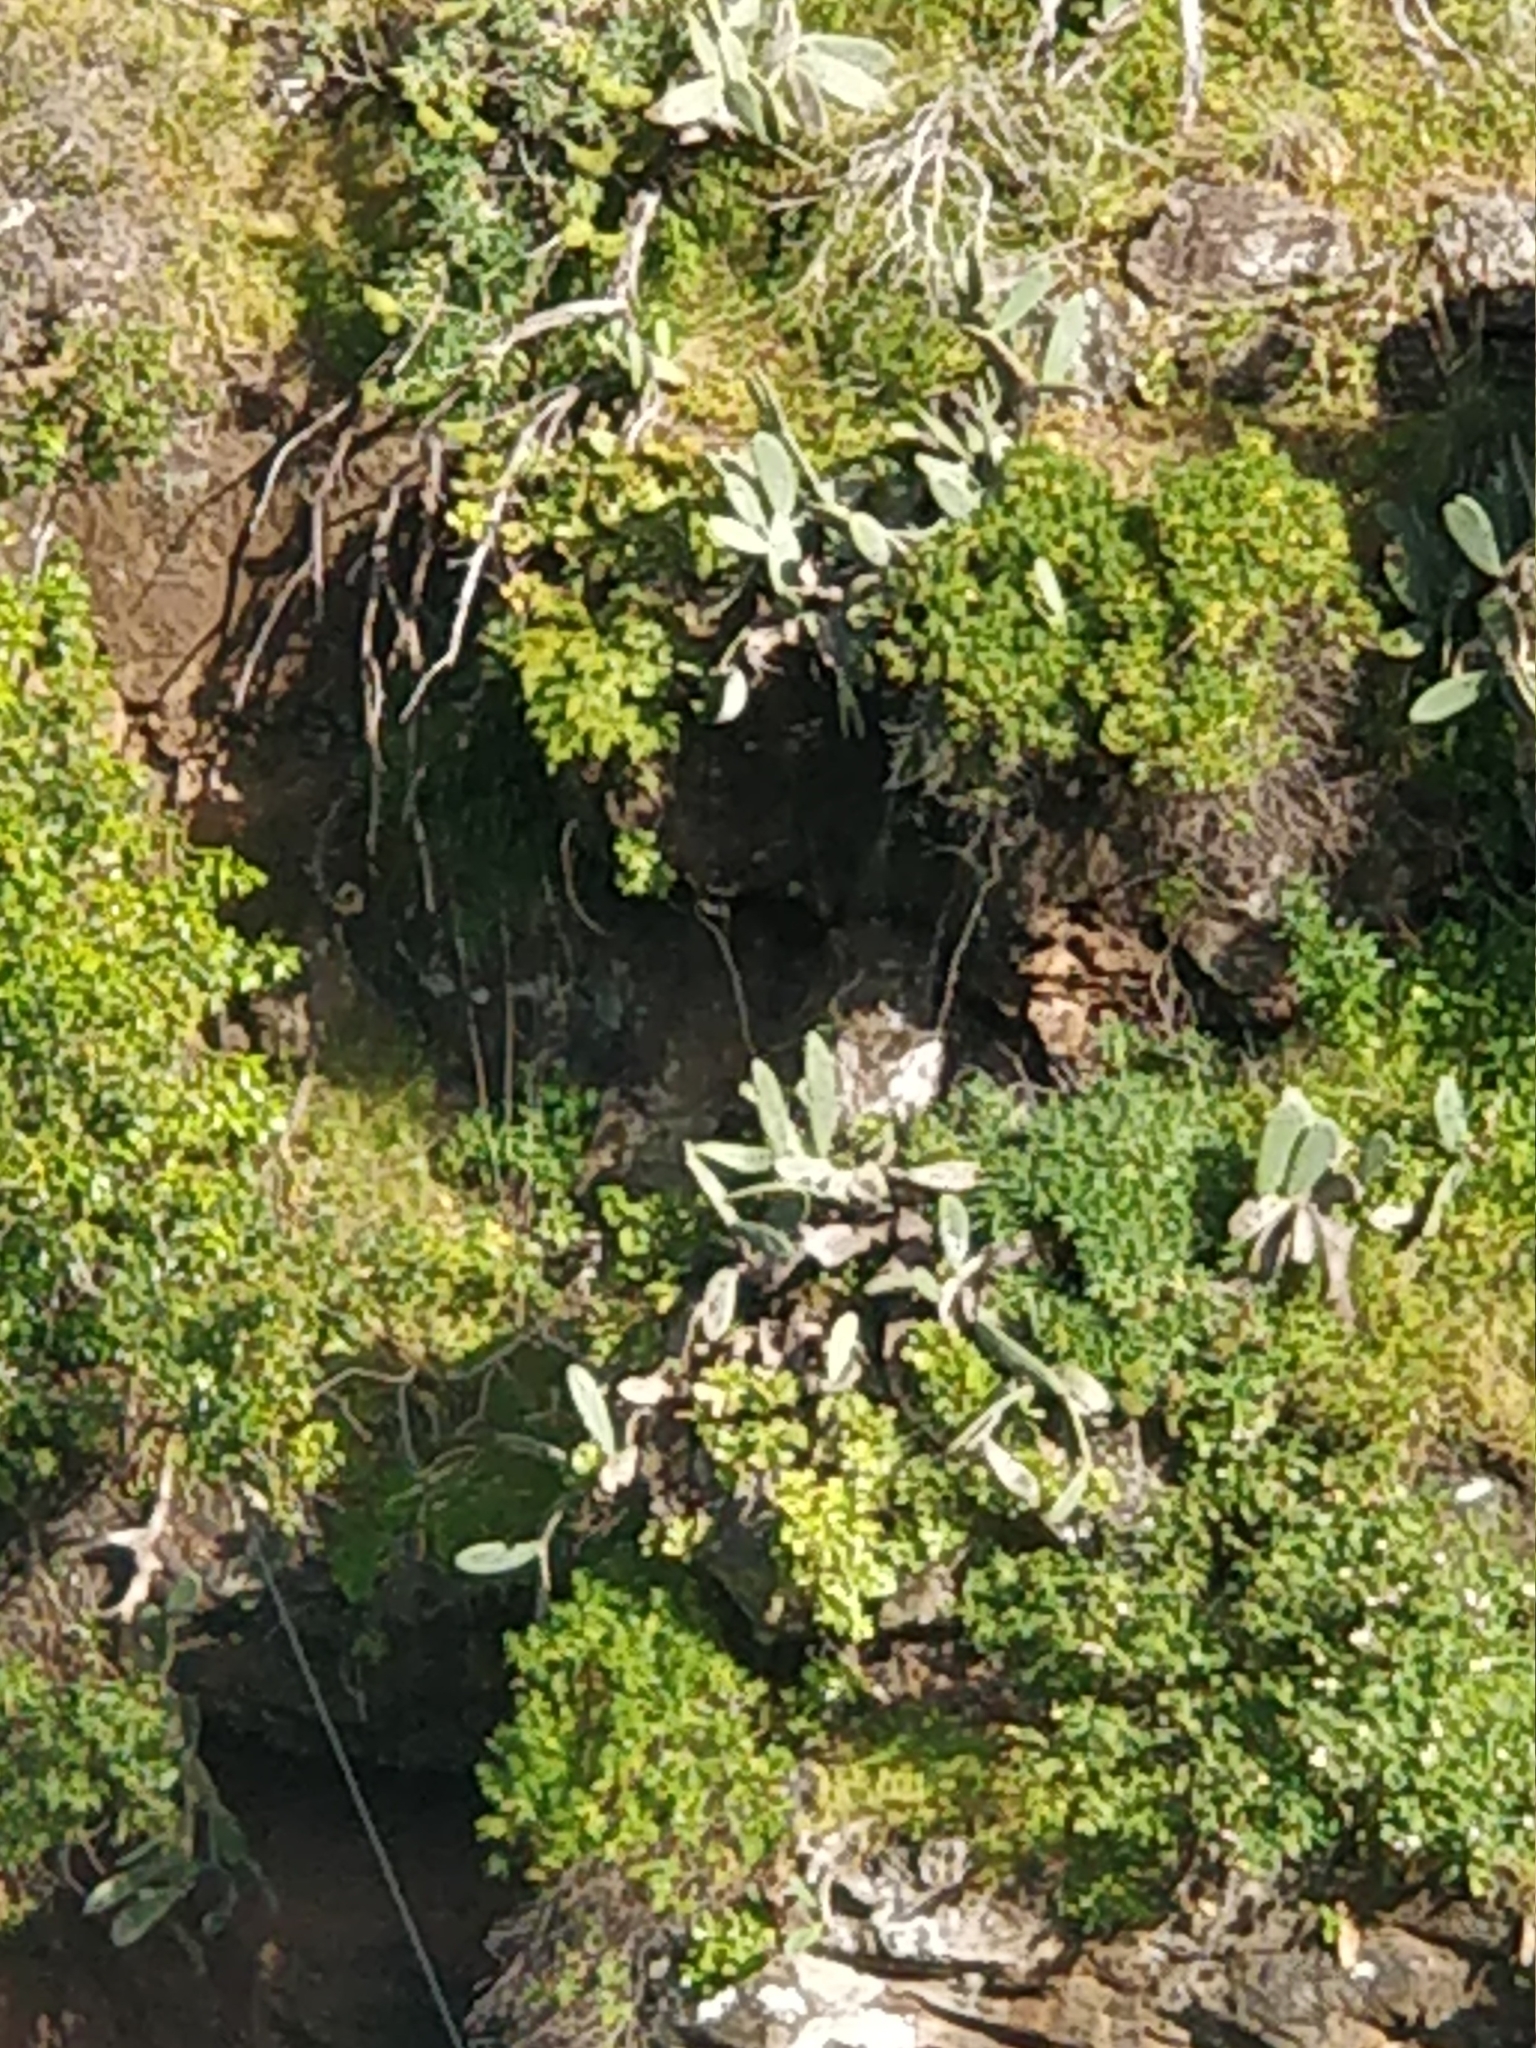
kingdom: Plantae
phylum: Tracheophyta
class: Magnoliopsida
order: Caryophyllales
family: Cactaceae
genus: Opuntia
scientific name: Opuntia ficus-indica
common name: Barbary fig
